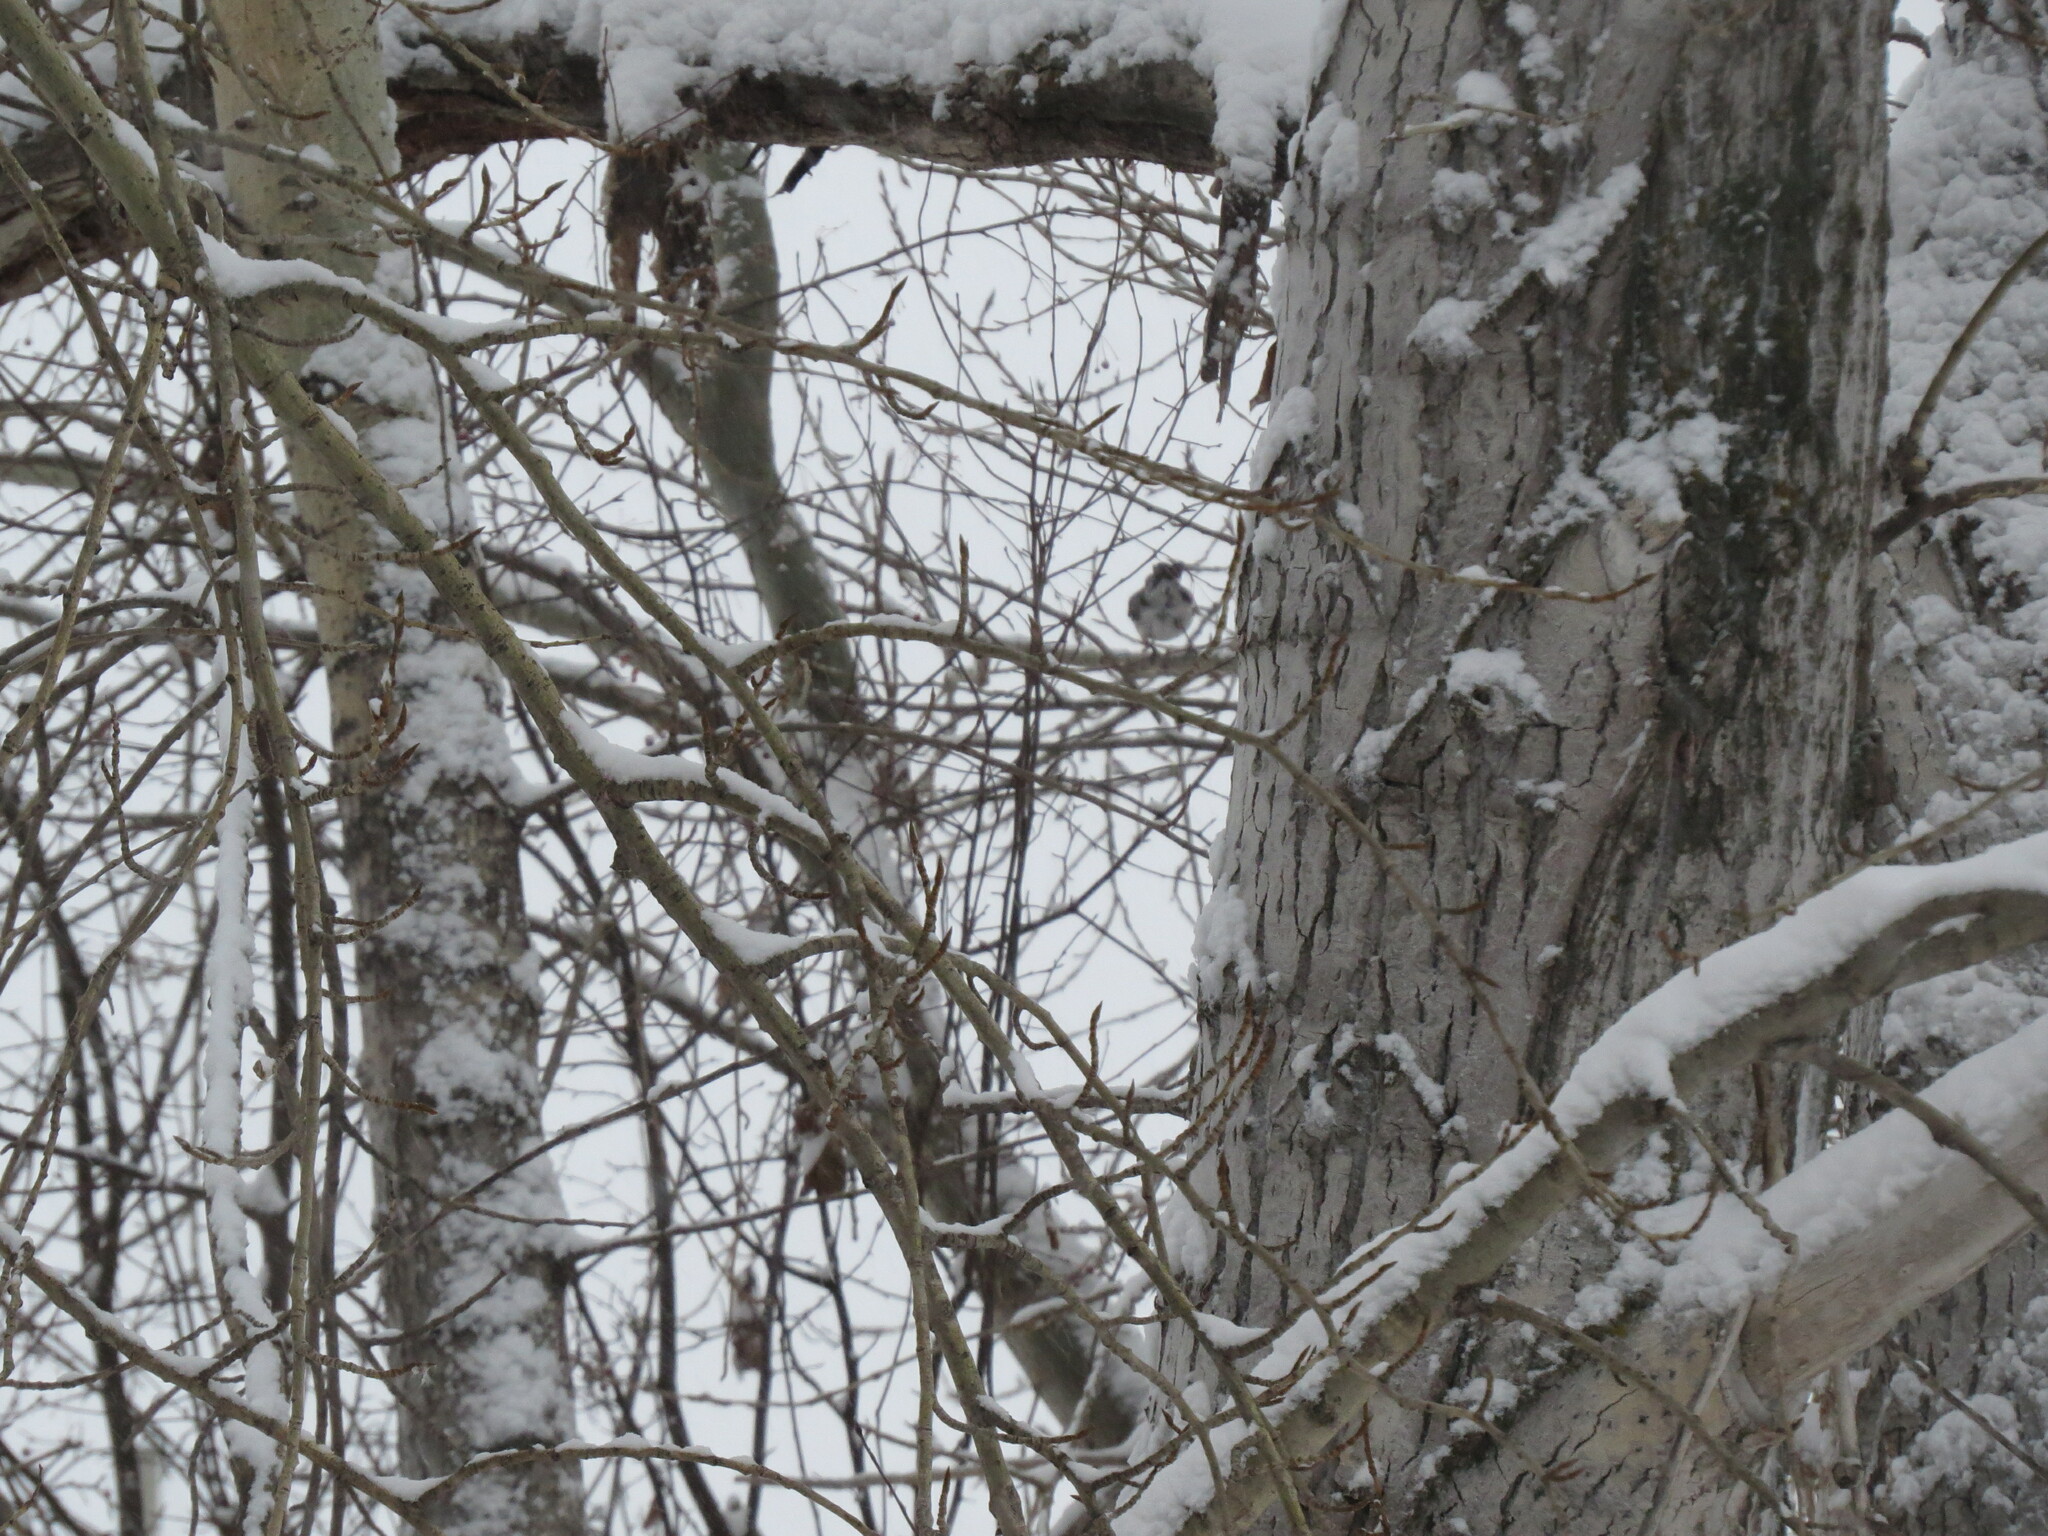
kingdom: Animalia
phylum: Chordata
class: Aves
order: Passeriformes
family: Turdidae
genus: Turdus
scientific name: Turdus pilaris
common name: Fieldfare
